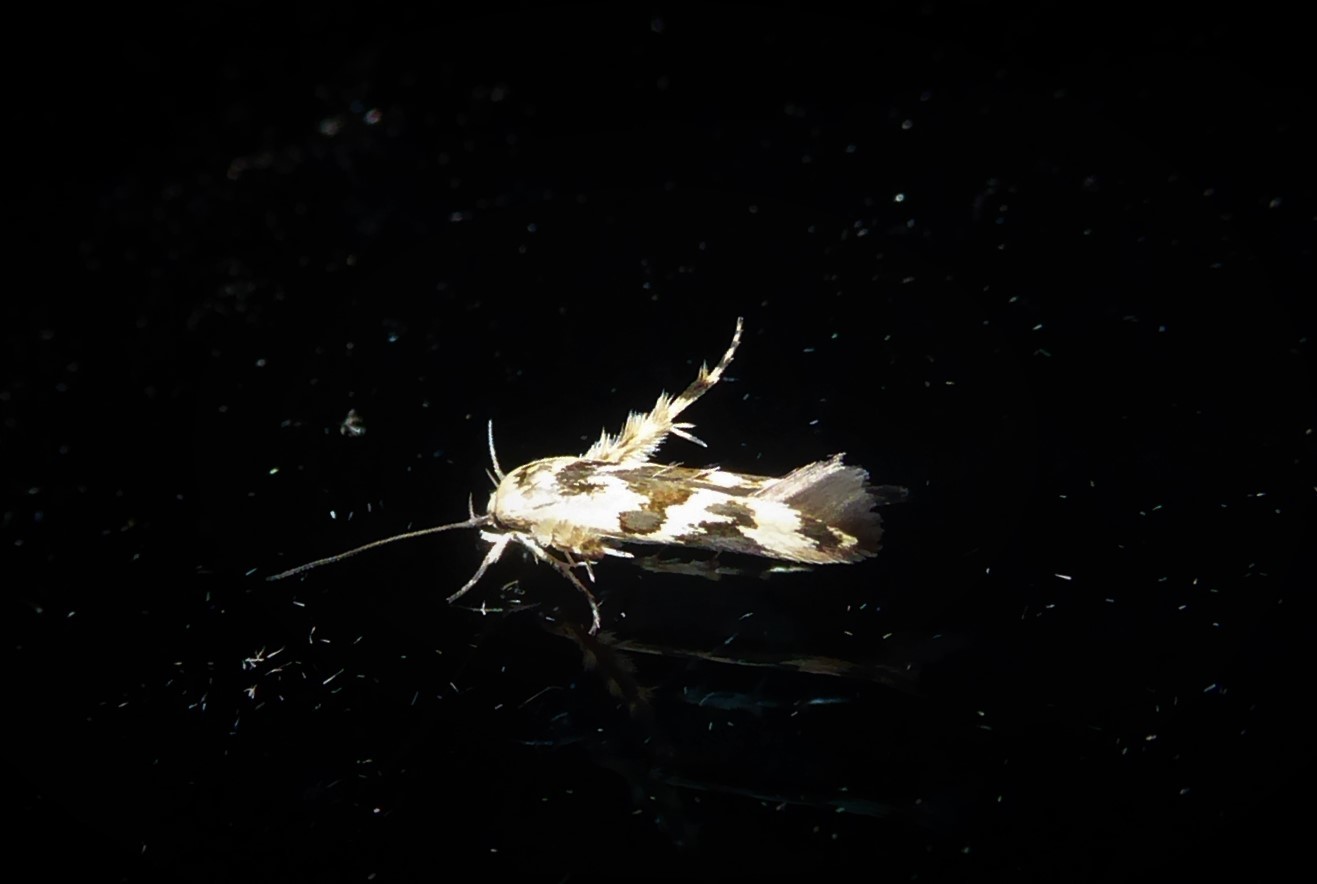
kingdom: Animalia
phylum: Arthropoda
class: Insecta
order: Lepidoptera
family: Stathmopodidae
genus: Stathmopoda
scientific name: Stathmopoda melanochra
